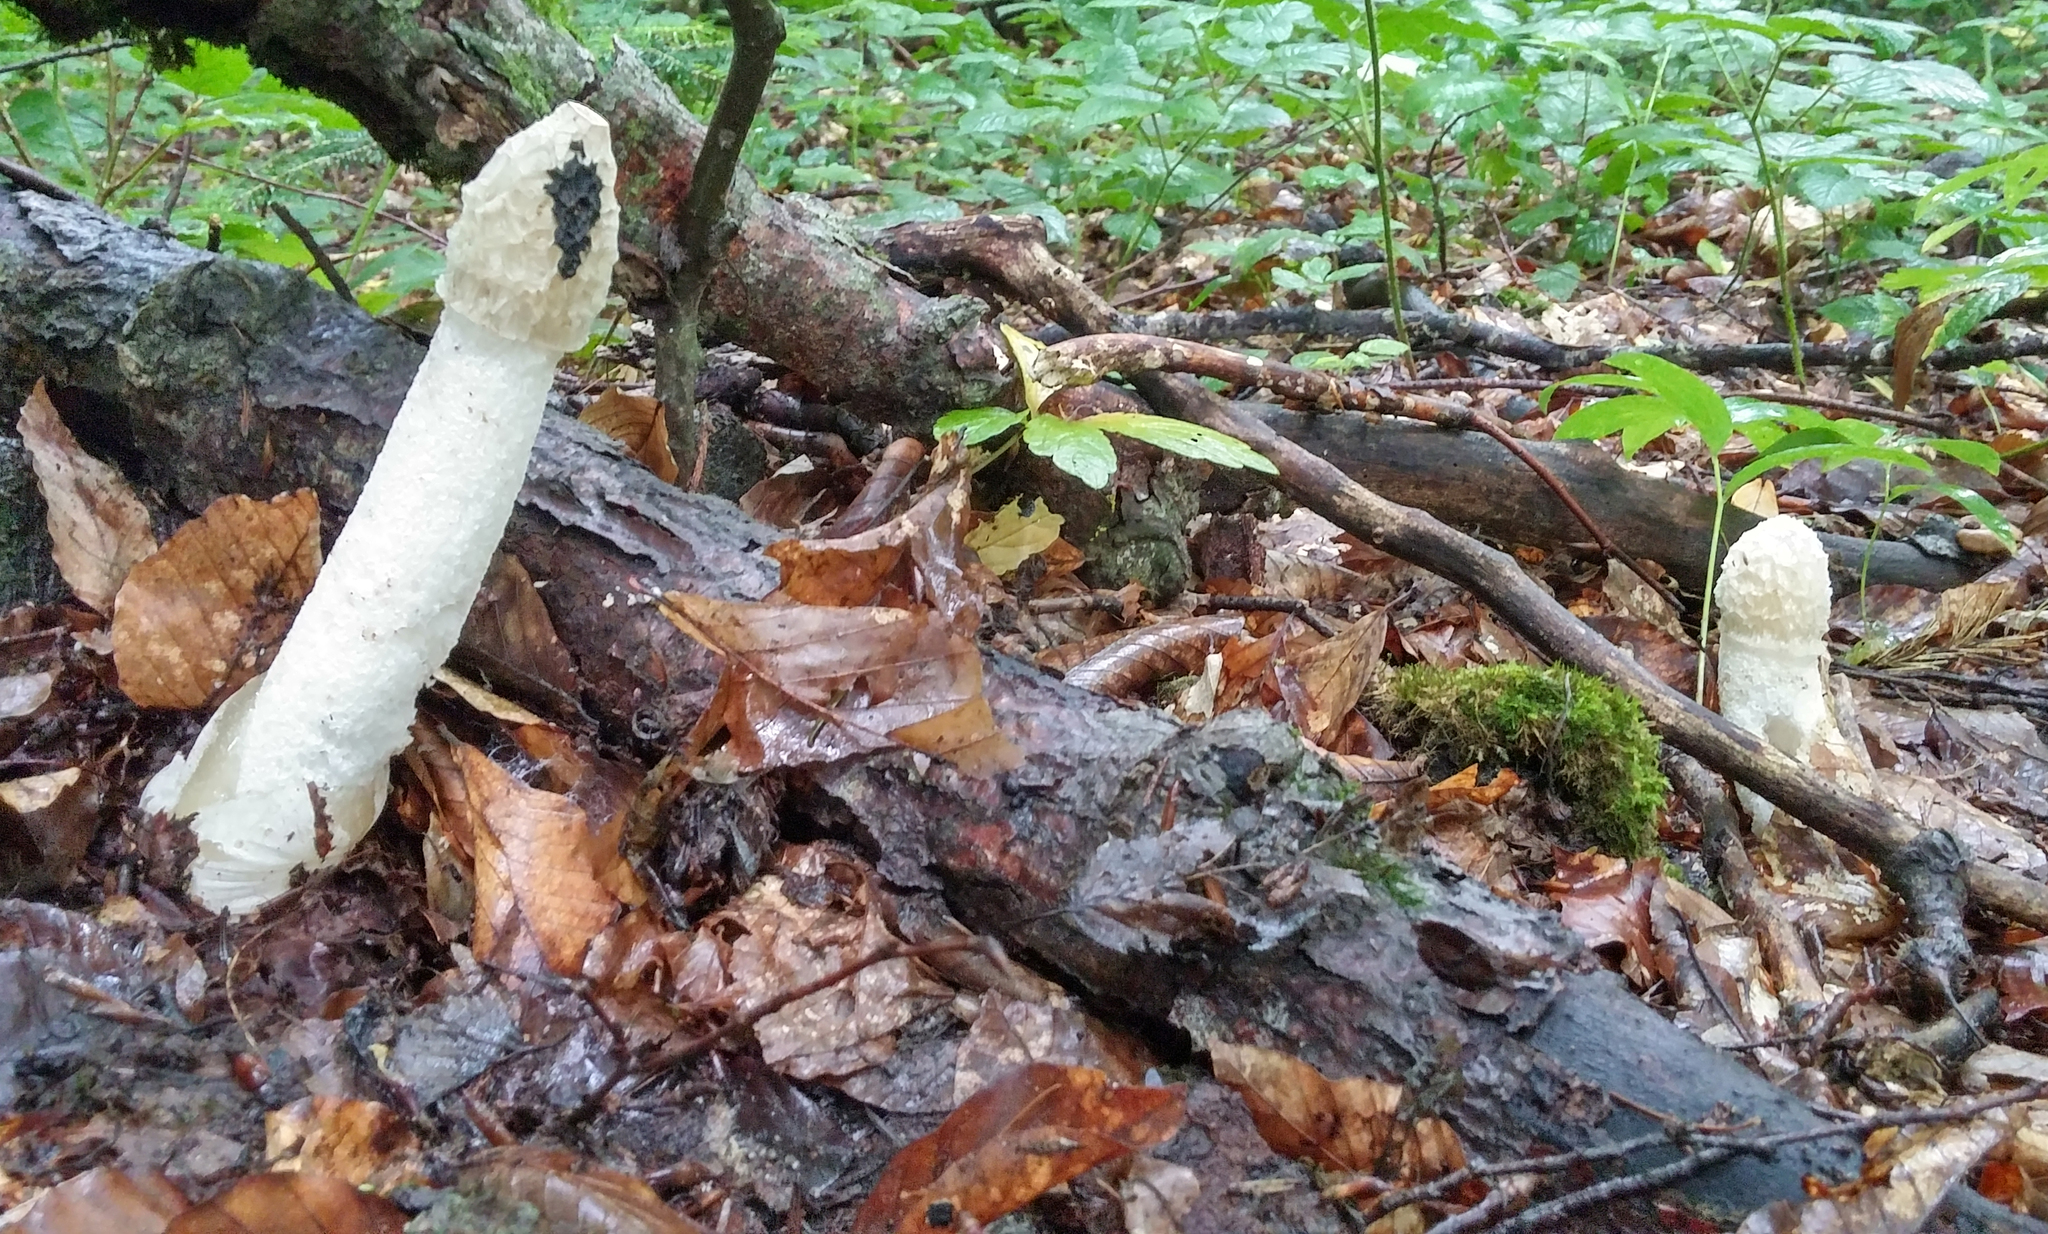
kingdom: Fungi
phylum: Basidiomycota
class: Agaricomycetes
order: Phallales
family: Phallaceae
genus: Phallus
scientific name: Phallus impudicus
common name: Common stinkhorn
